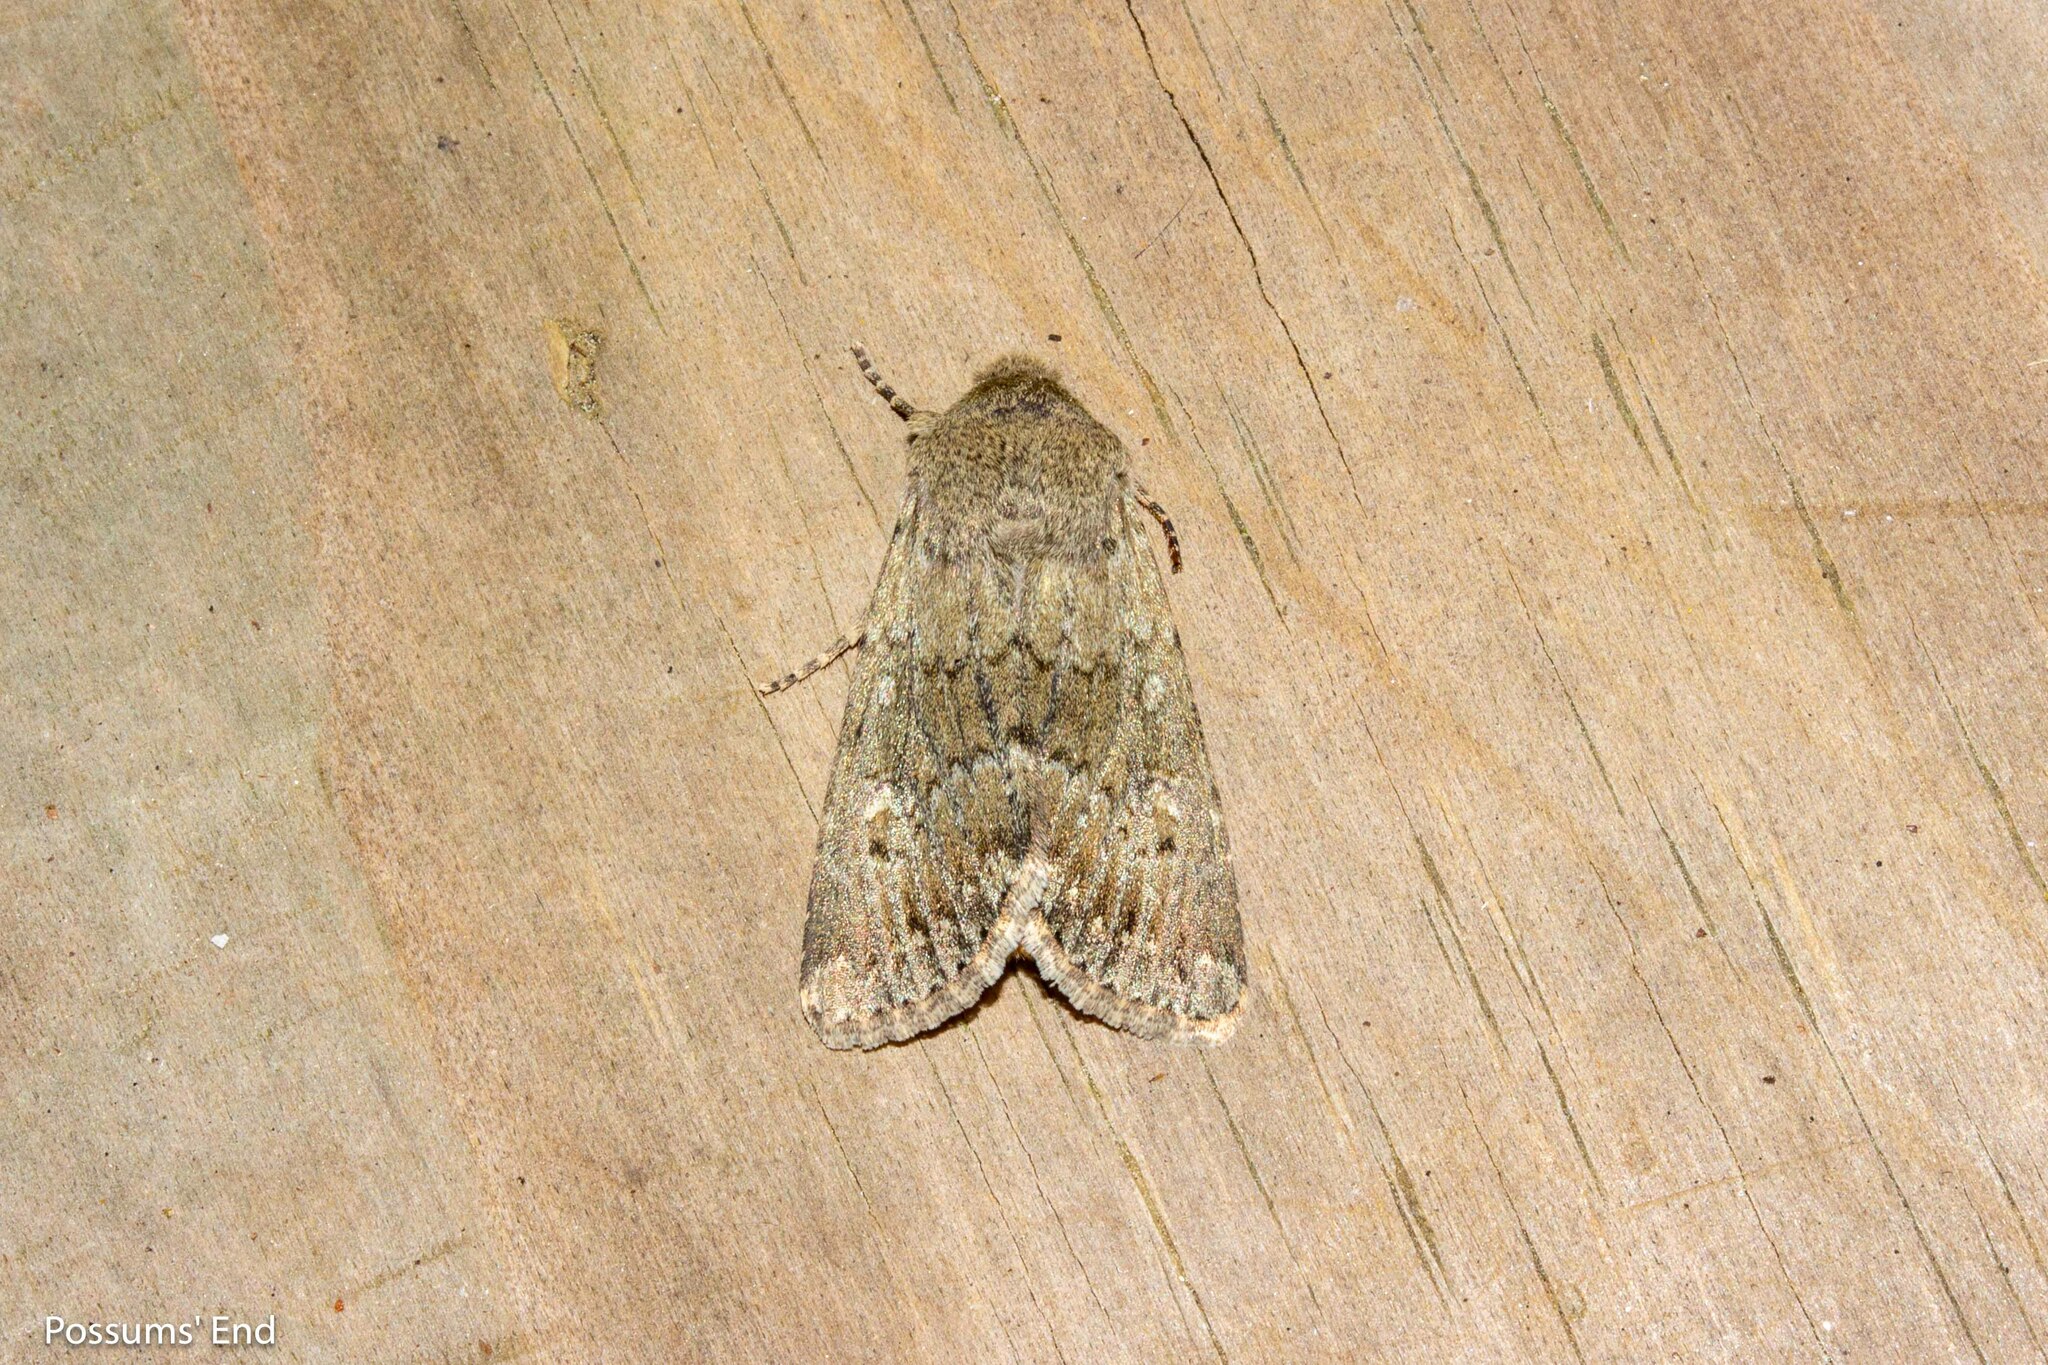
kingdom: Animalia
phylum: Arthropoda
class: Insecta
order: Lepidoptera
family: Noctuidae
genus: Ichneutica
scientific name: Ichneutica moderata
